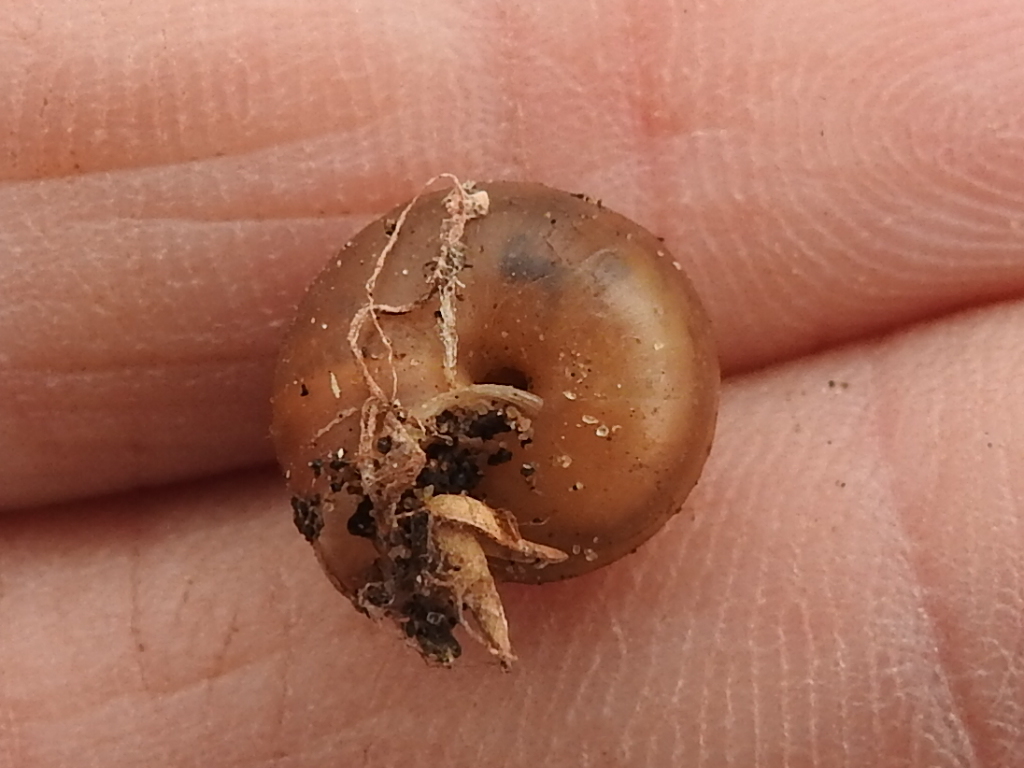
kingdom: Animalia
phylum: Mollusca
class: Gastropoda
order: Stylommatophora
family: Camaenidae
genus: Bradybaena
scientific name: Bradybaena similaris
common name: Asian trampsnail
